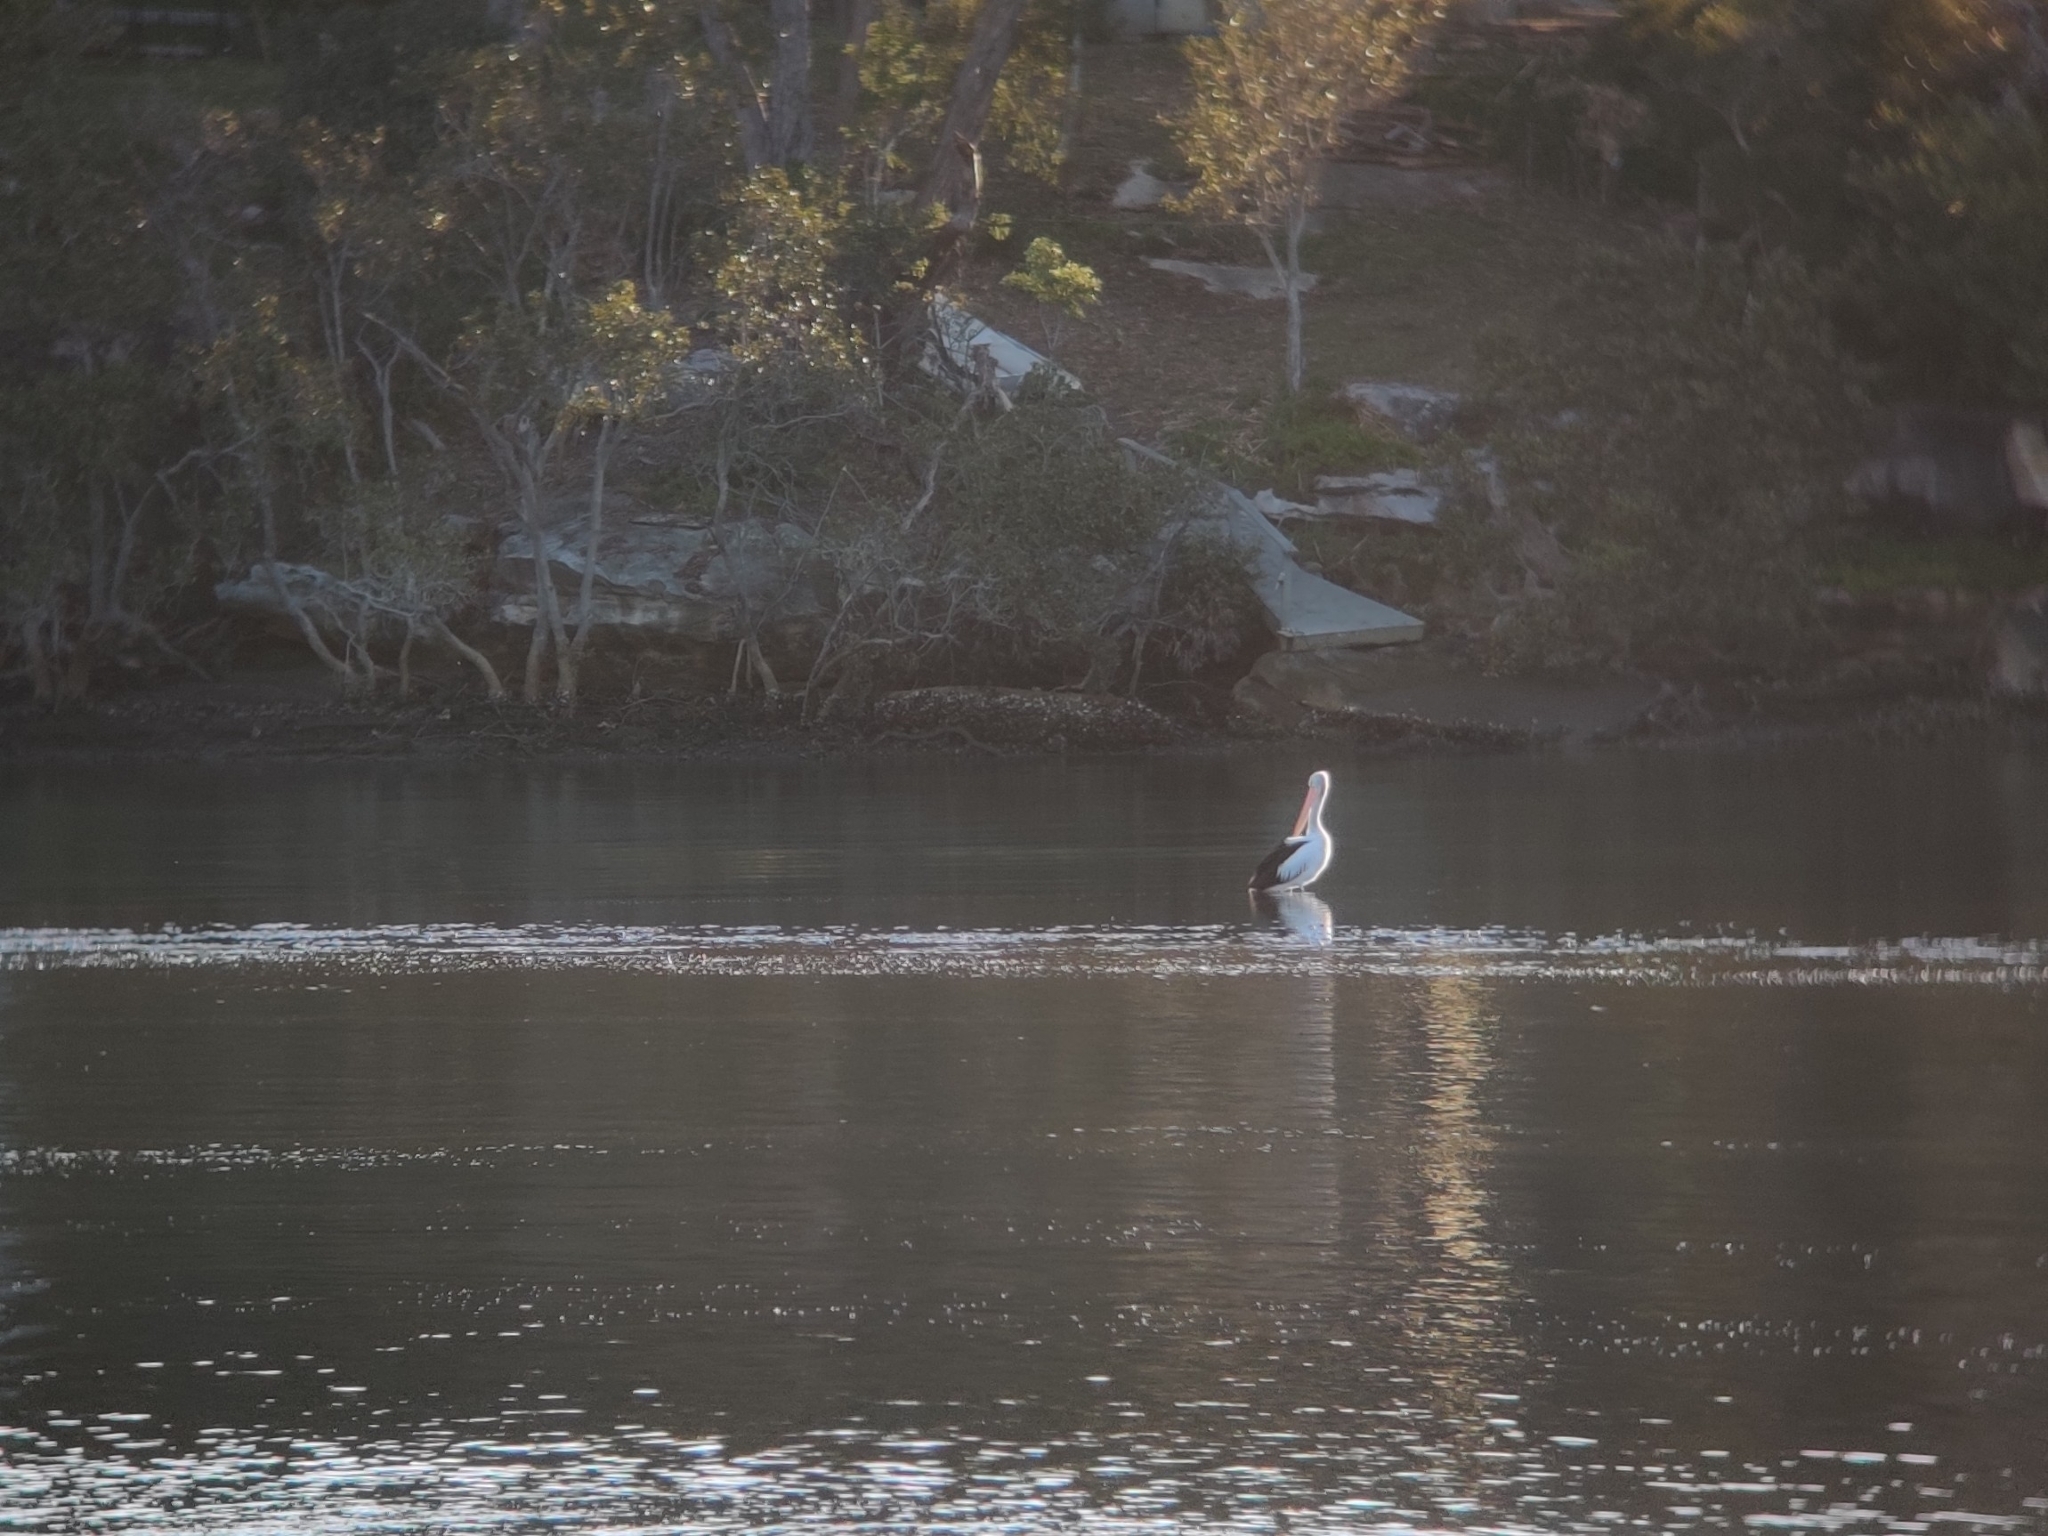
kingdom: Animalia
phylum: Chordata
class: Aves
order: Pelecaniformes
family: Pelecanidae
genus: Pelecanus
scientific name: Pelecanus conspicillatus
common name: Australian pelican
